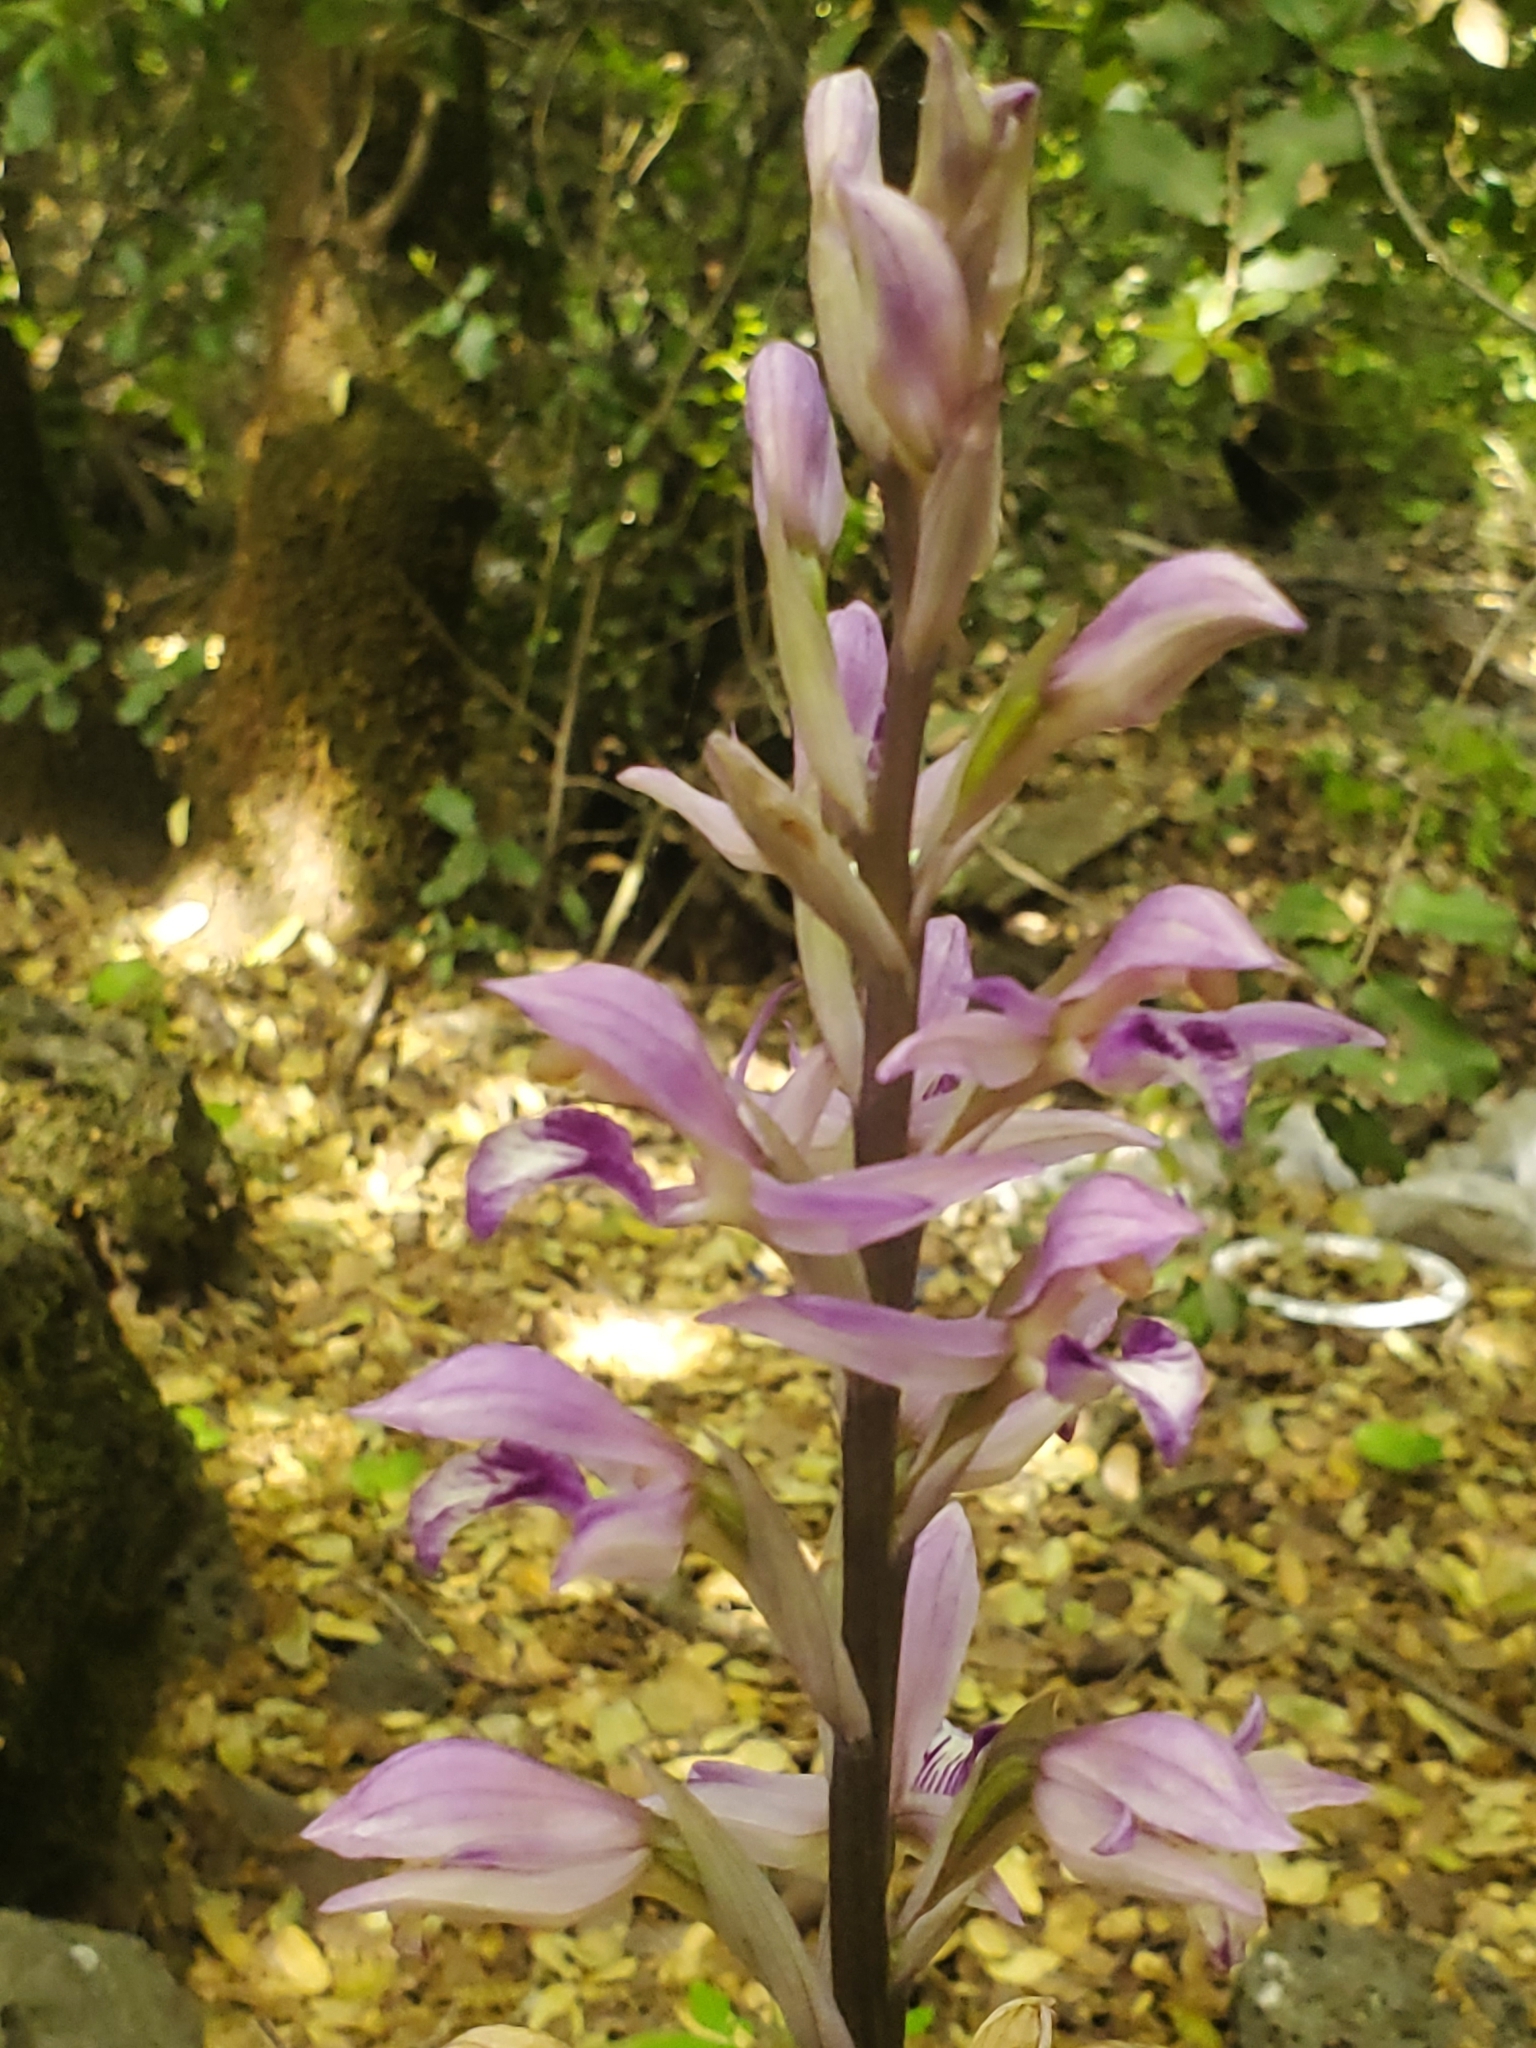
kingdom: Plantae
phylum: Tracheophyta
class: Liliopsida
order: Asparagales
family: Orchidaceae
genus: Limodorum
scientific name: Limodorum abortivum
